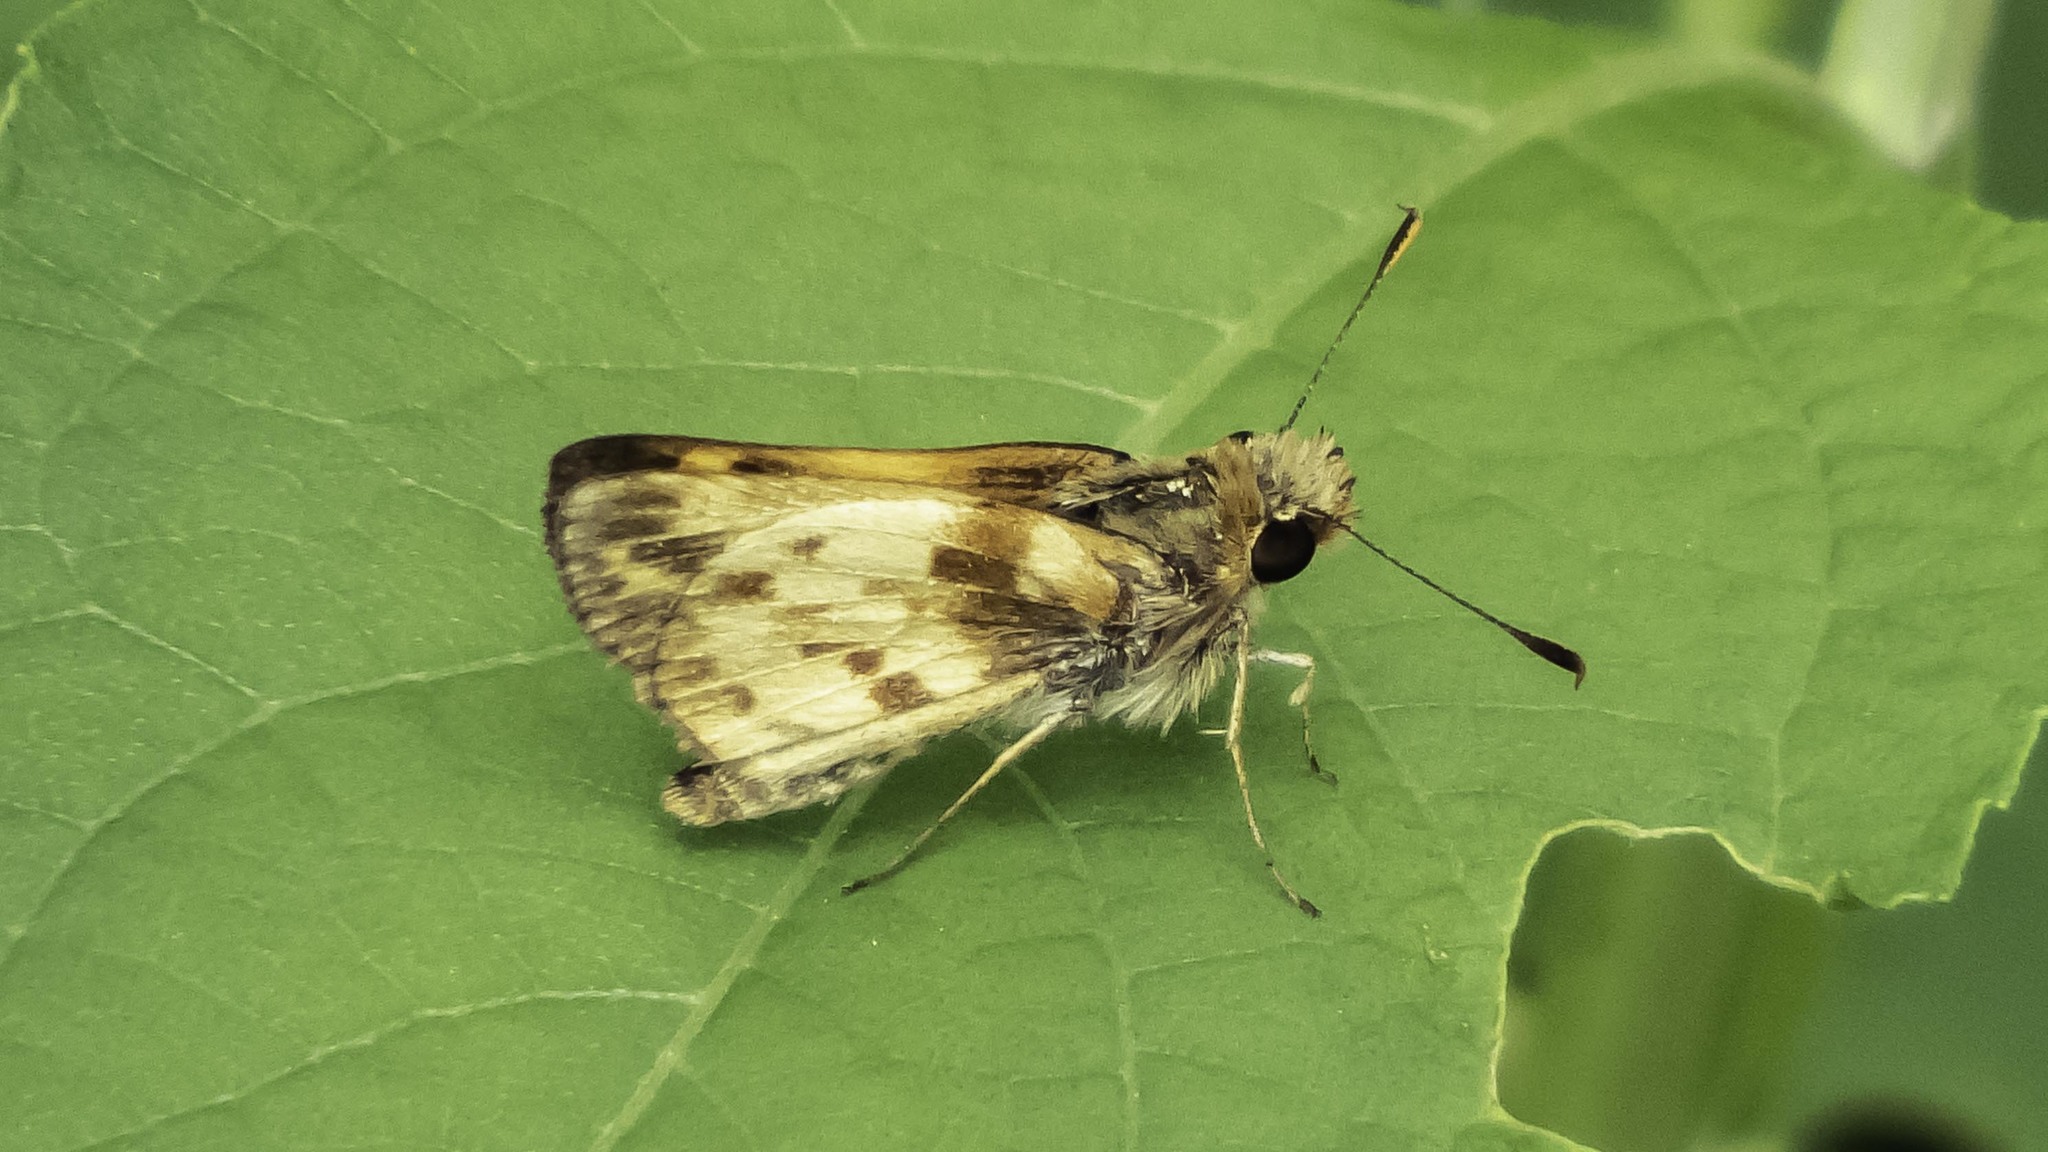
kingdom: Animalia
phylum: Arthropoda
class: Insecta
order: Lepidoptera
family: Hesperiidae
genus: Lon
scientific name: Lon zabulon
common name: Zabulon skipper
